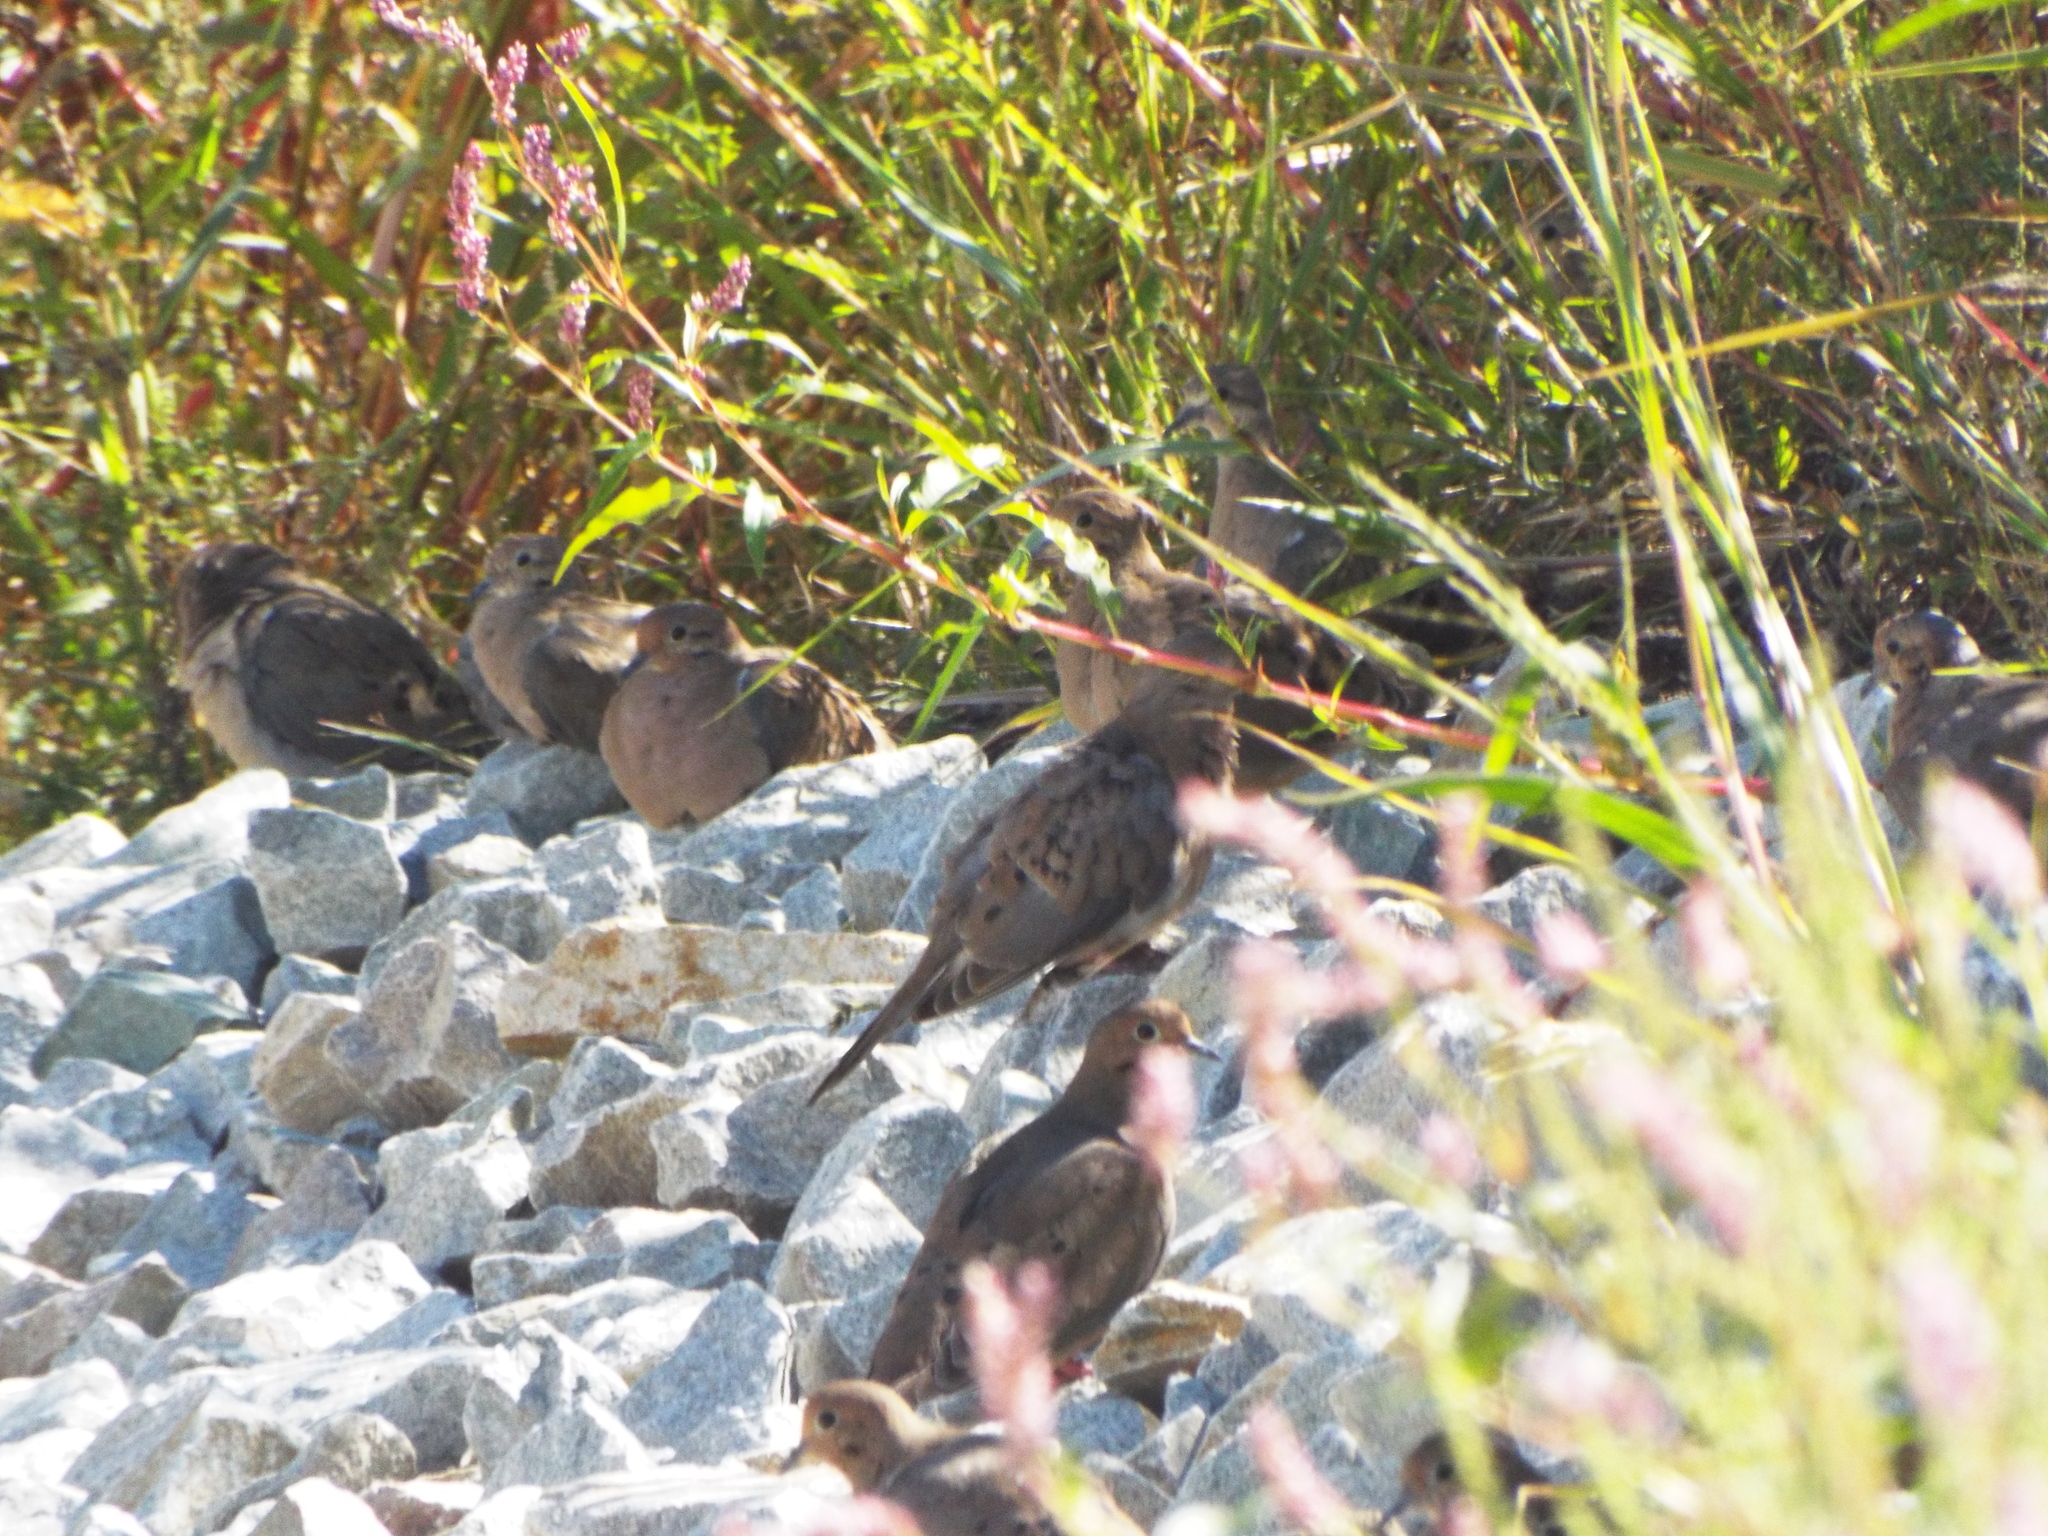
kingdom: Animalia
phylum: Chordata
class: Aves
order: Columbiformes
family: Columbidae
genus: Zenaida
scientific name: Zenaida macroura
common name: Mourning dove
